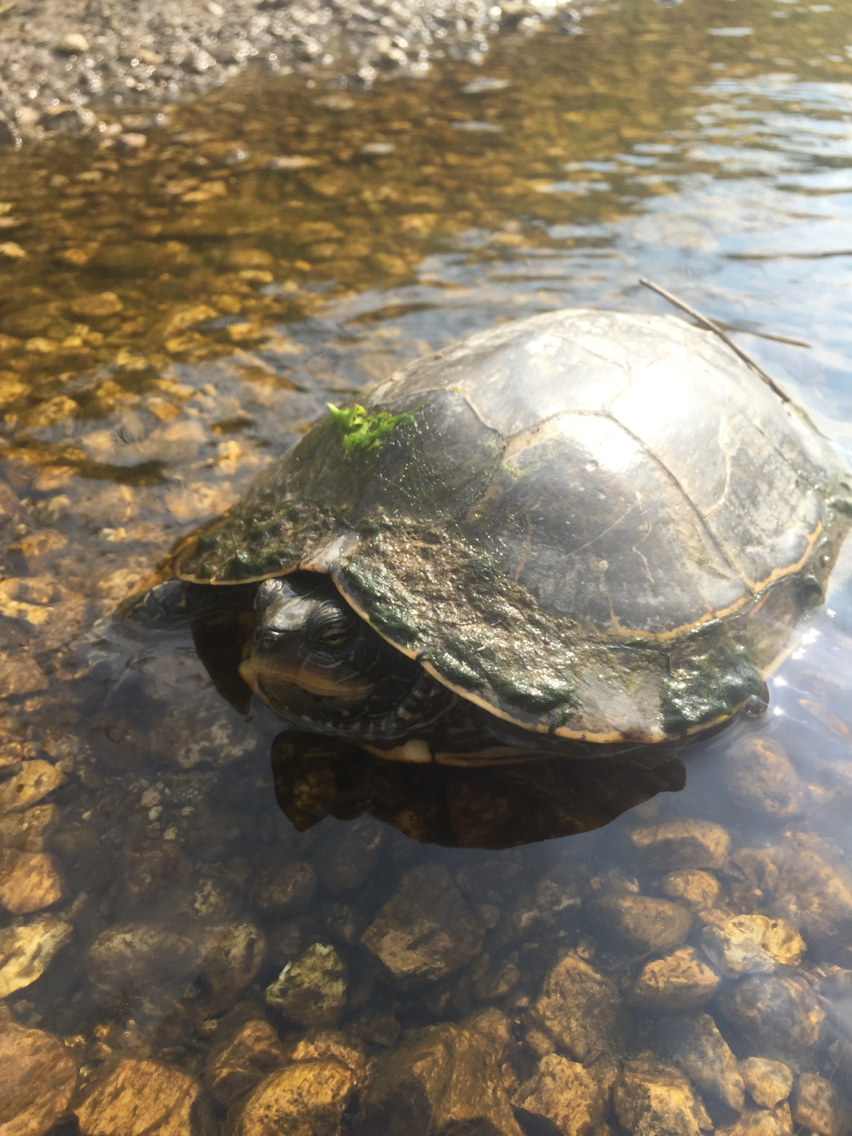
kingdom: Animalia
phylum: Chordata
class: Testudines
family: Emydidae
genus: Graptemys
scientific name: Graptemys geographica
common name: Common map turtle
